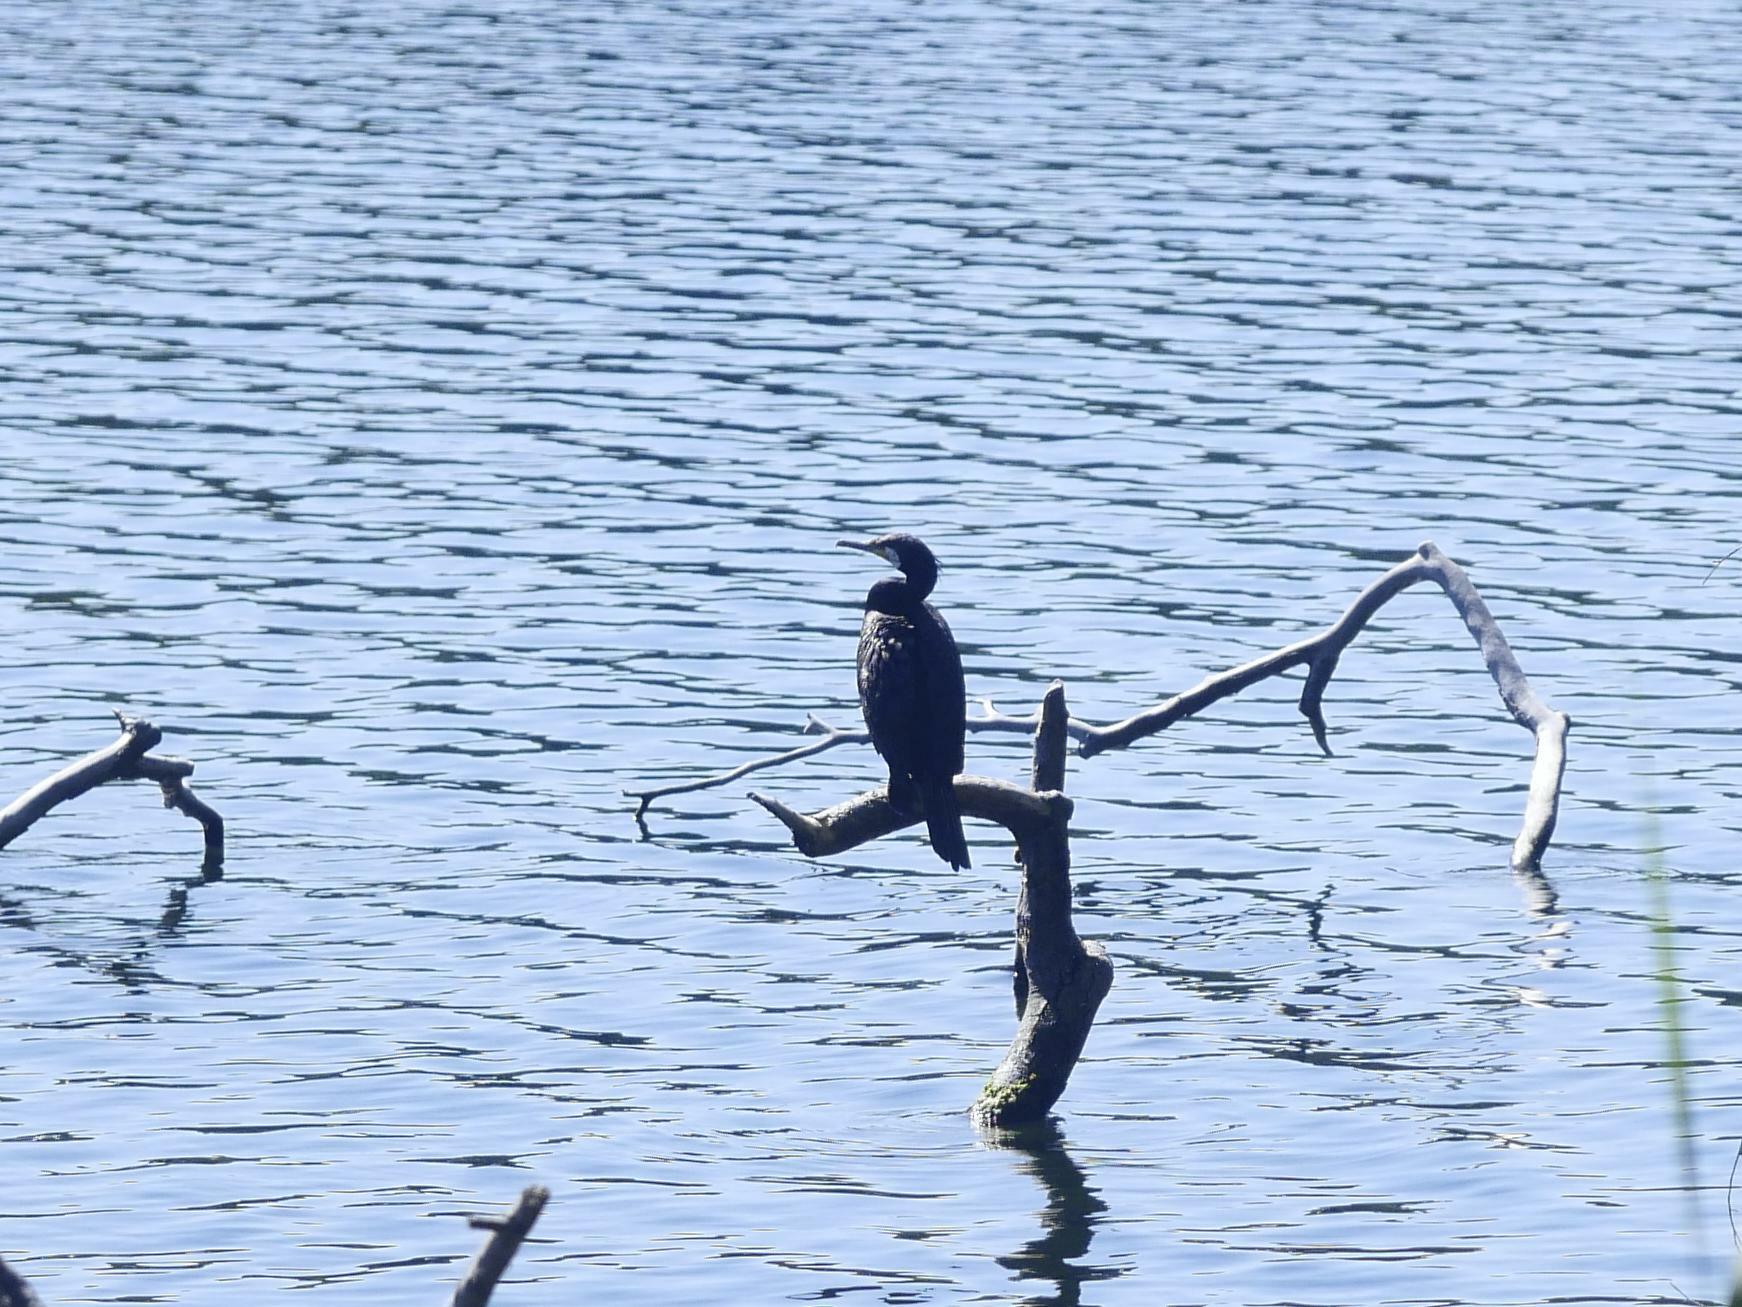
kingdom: Animalia
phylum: Chordata
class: Aves
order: Suliformes
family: Phalacrocoracidae
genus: Phalacrocorax
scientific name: Phalacrocorax carbo
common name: Great cormorant
